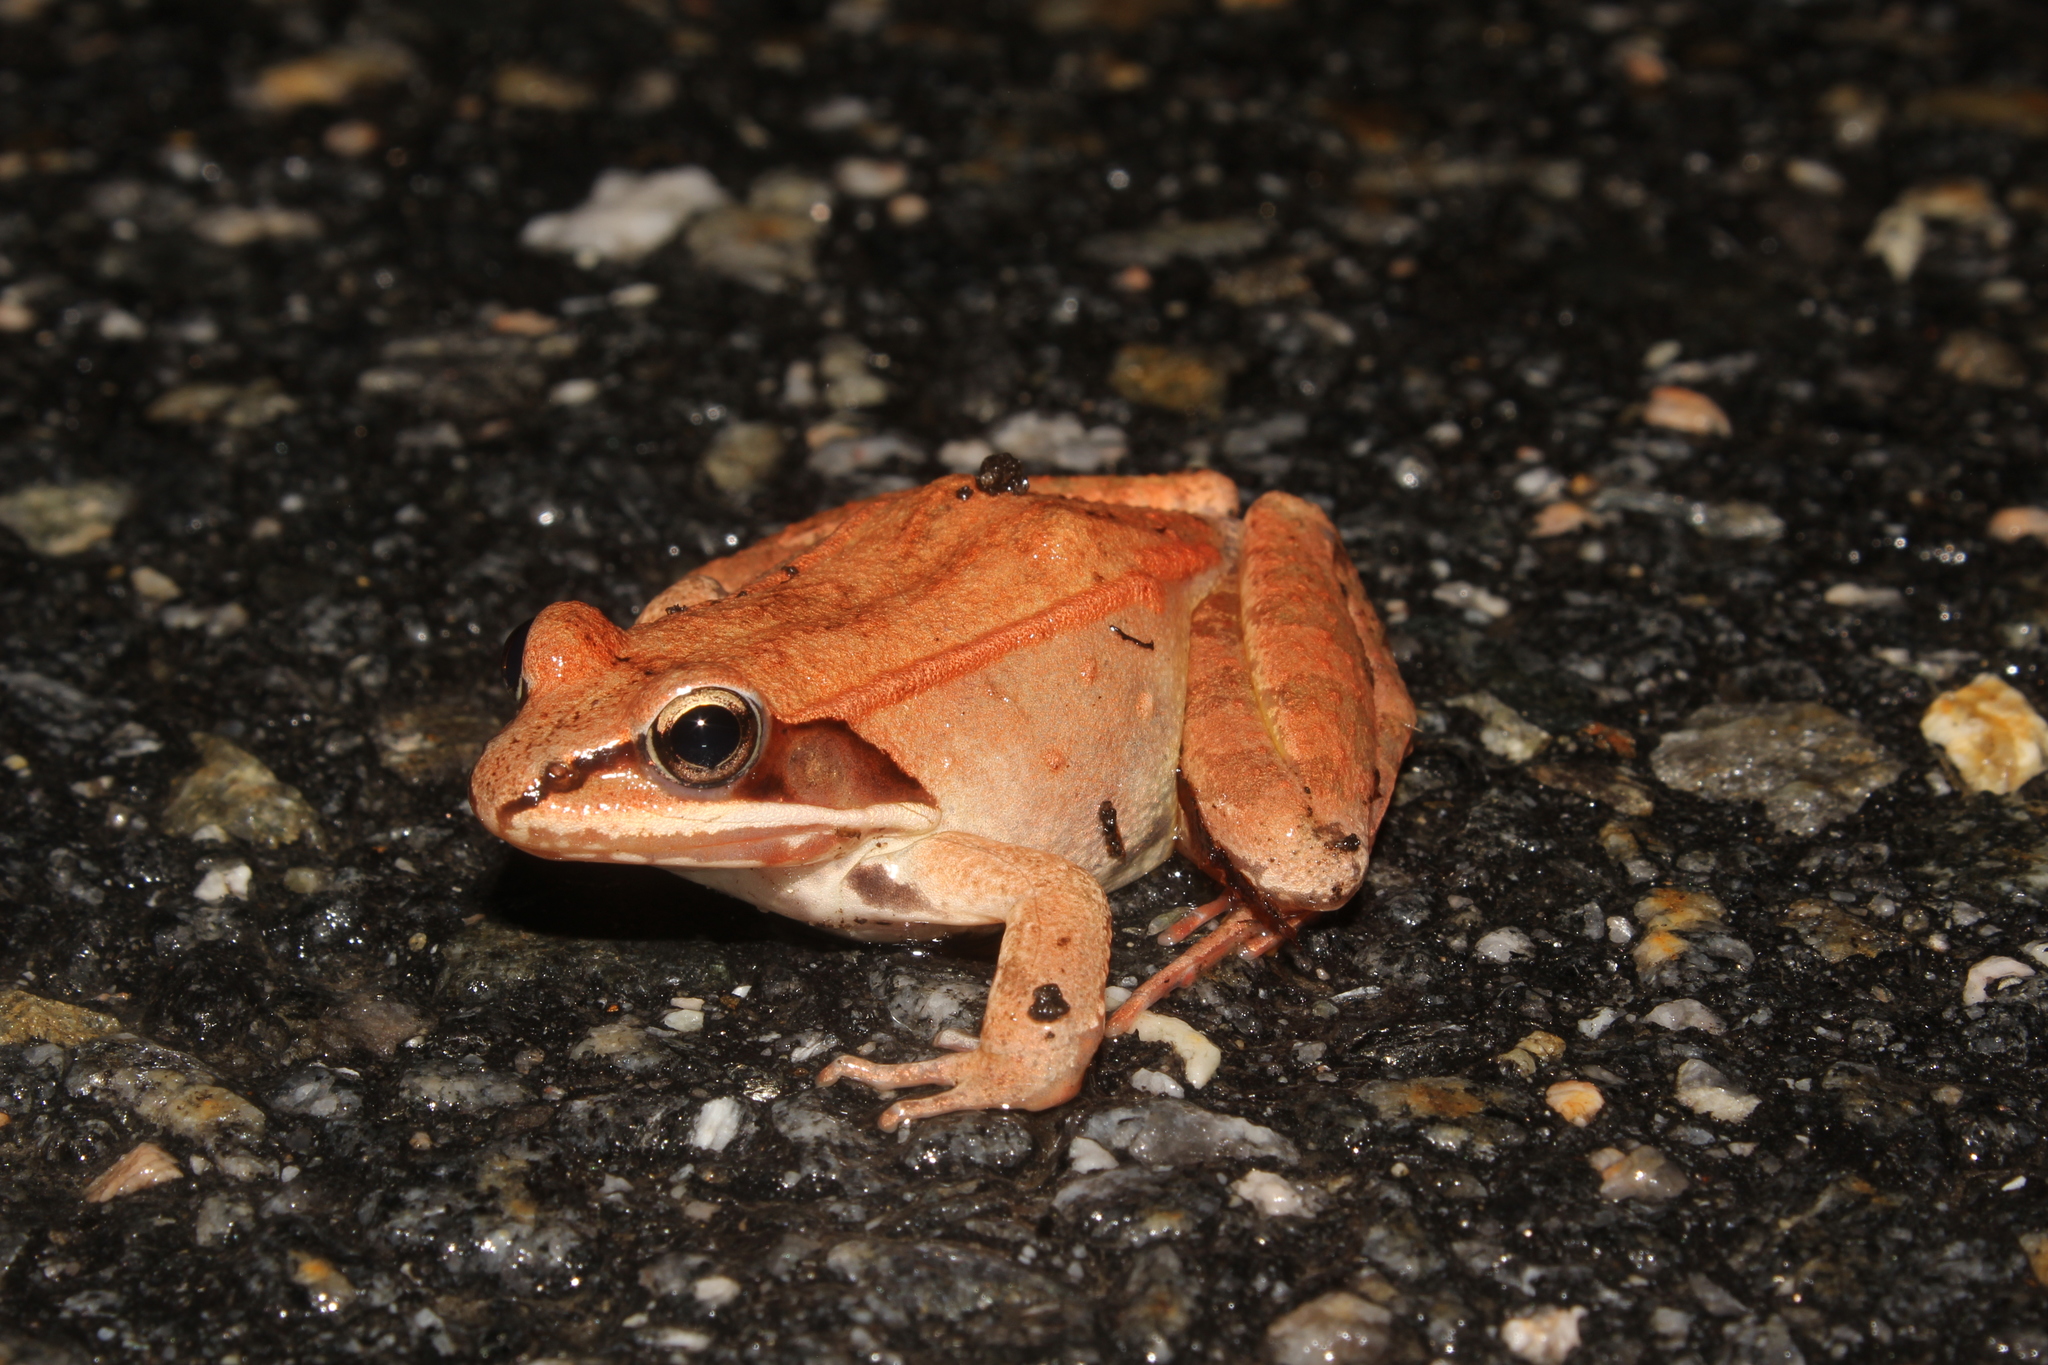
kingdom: Animalia
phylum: Chordata
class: Amphibia
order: Anura
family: Ranidae
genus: Lithobates
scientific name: Lithobates sylvaticus
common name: Wood frog
